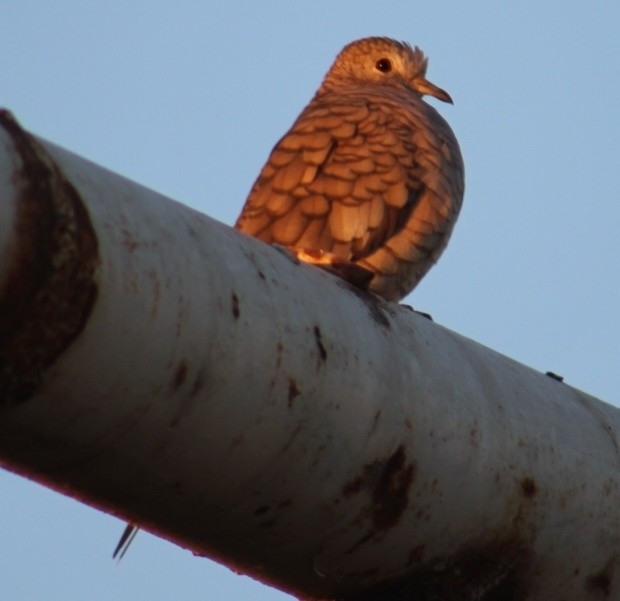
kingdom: Animalia
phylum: Chordata
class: Aves
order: Columbiformes
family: Columbidae
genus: Columbina
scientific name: Columbina inca
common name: Inca dove
